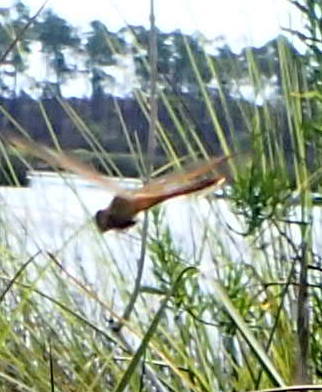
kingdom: Animalia
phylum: Arthropoda
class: Insecta
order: Odonata
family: Libellulidae
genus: Libellula
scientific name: Libellula needhami
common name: Needham's skimmer
